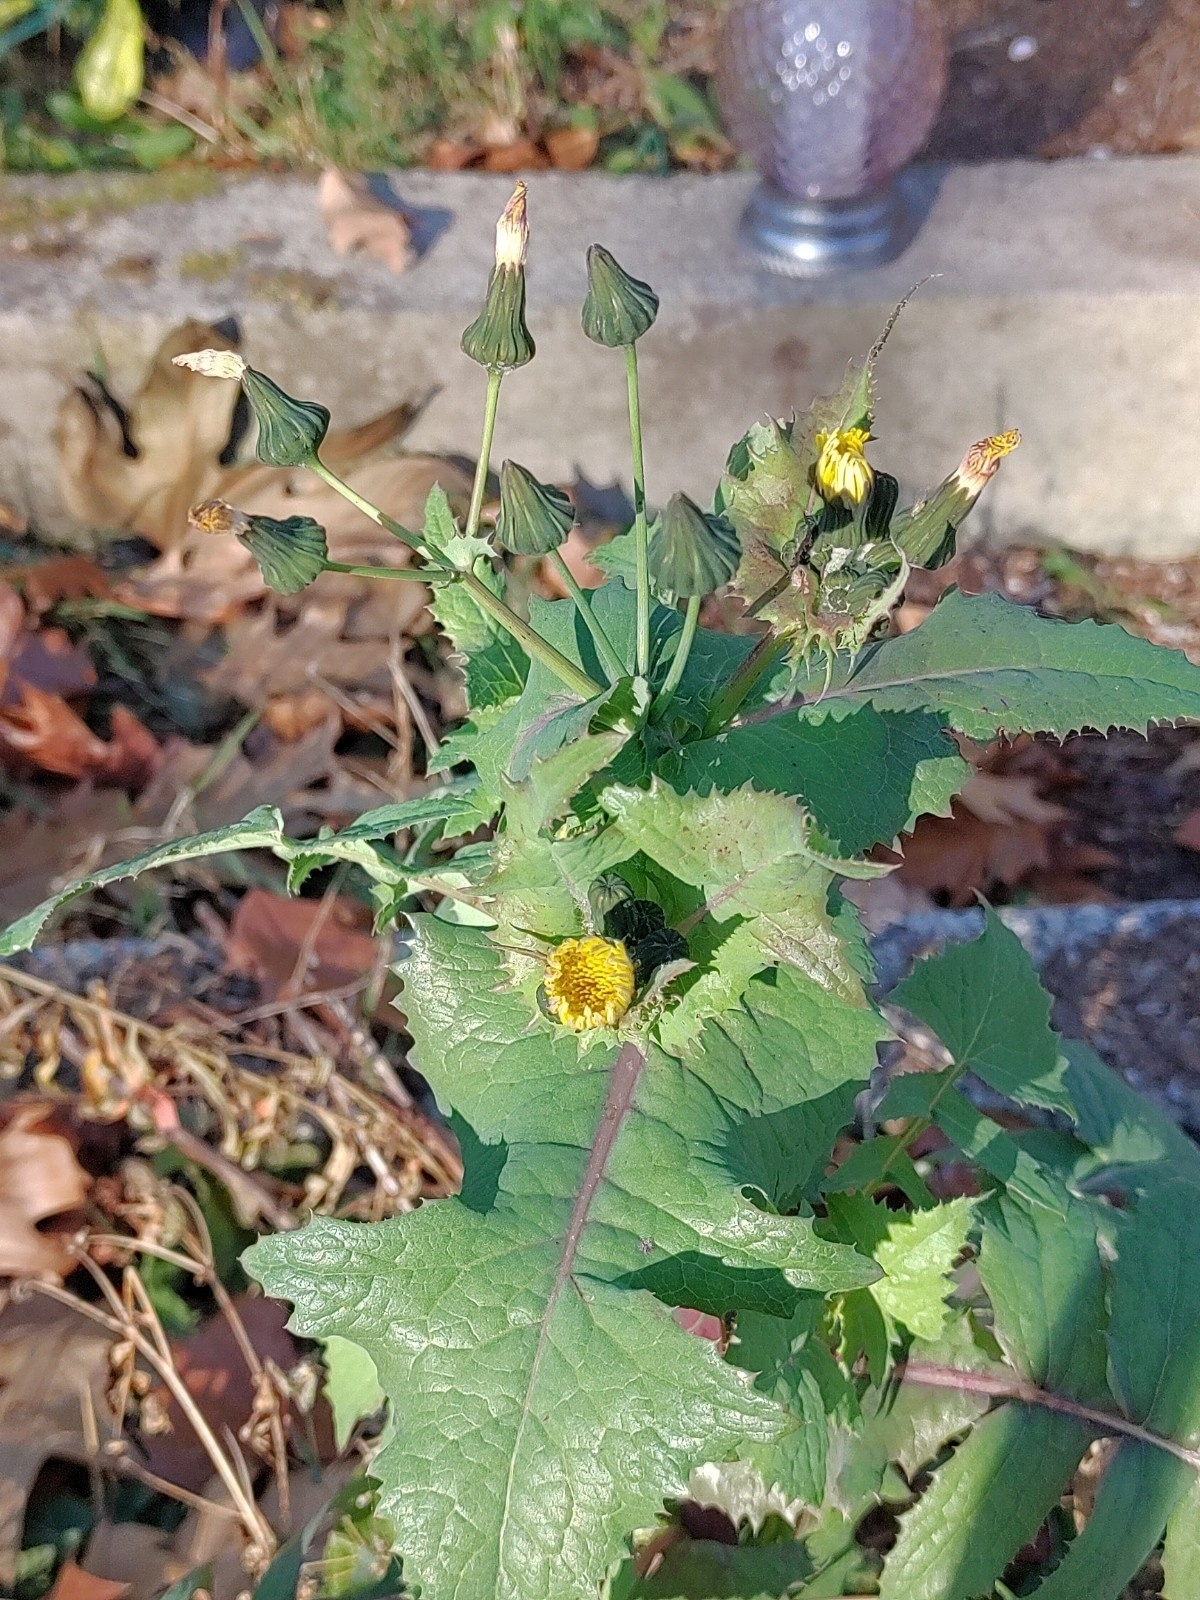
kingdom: Plantae
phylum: Tracheophyta
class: Magnoliopsida
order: Asterales
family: Asteraceae
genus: Sonchus
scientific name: Sonchus oleraceus
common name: Common sowthistle
